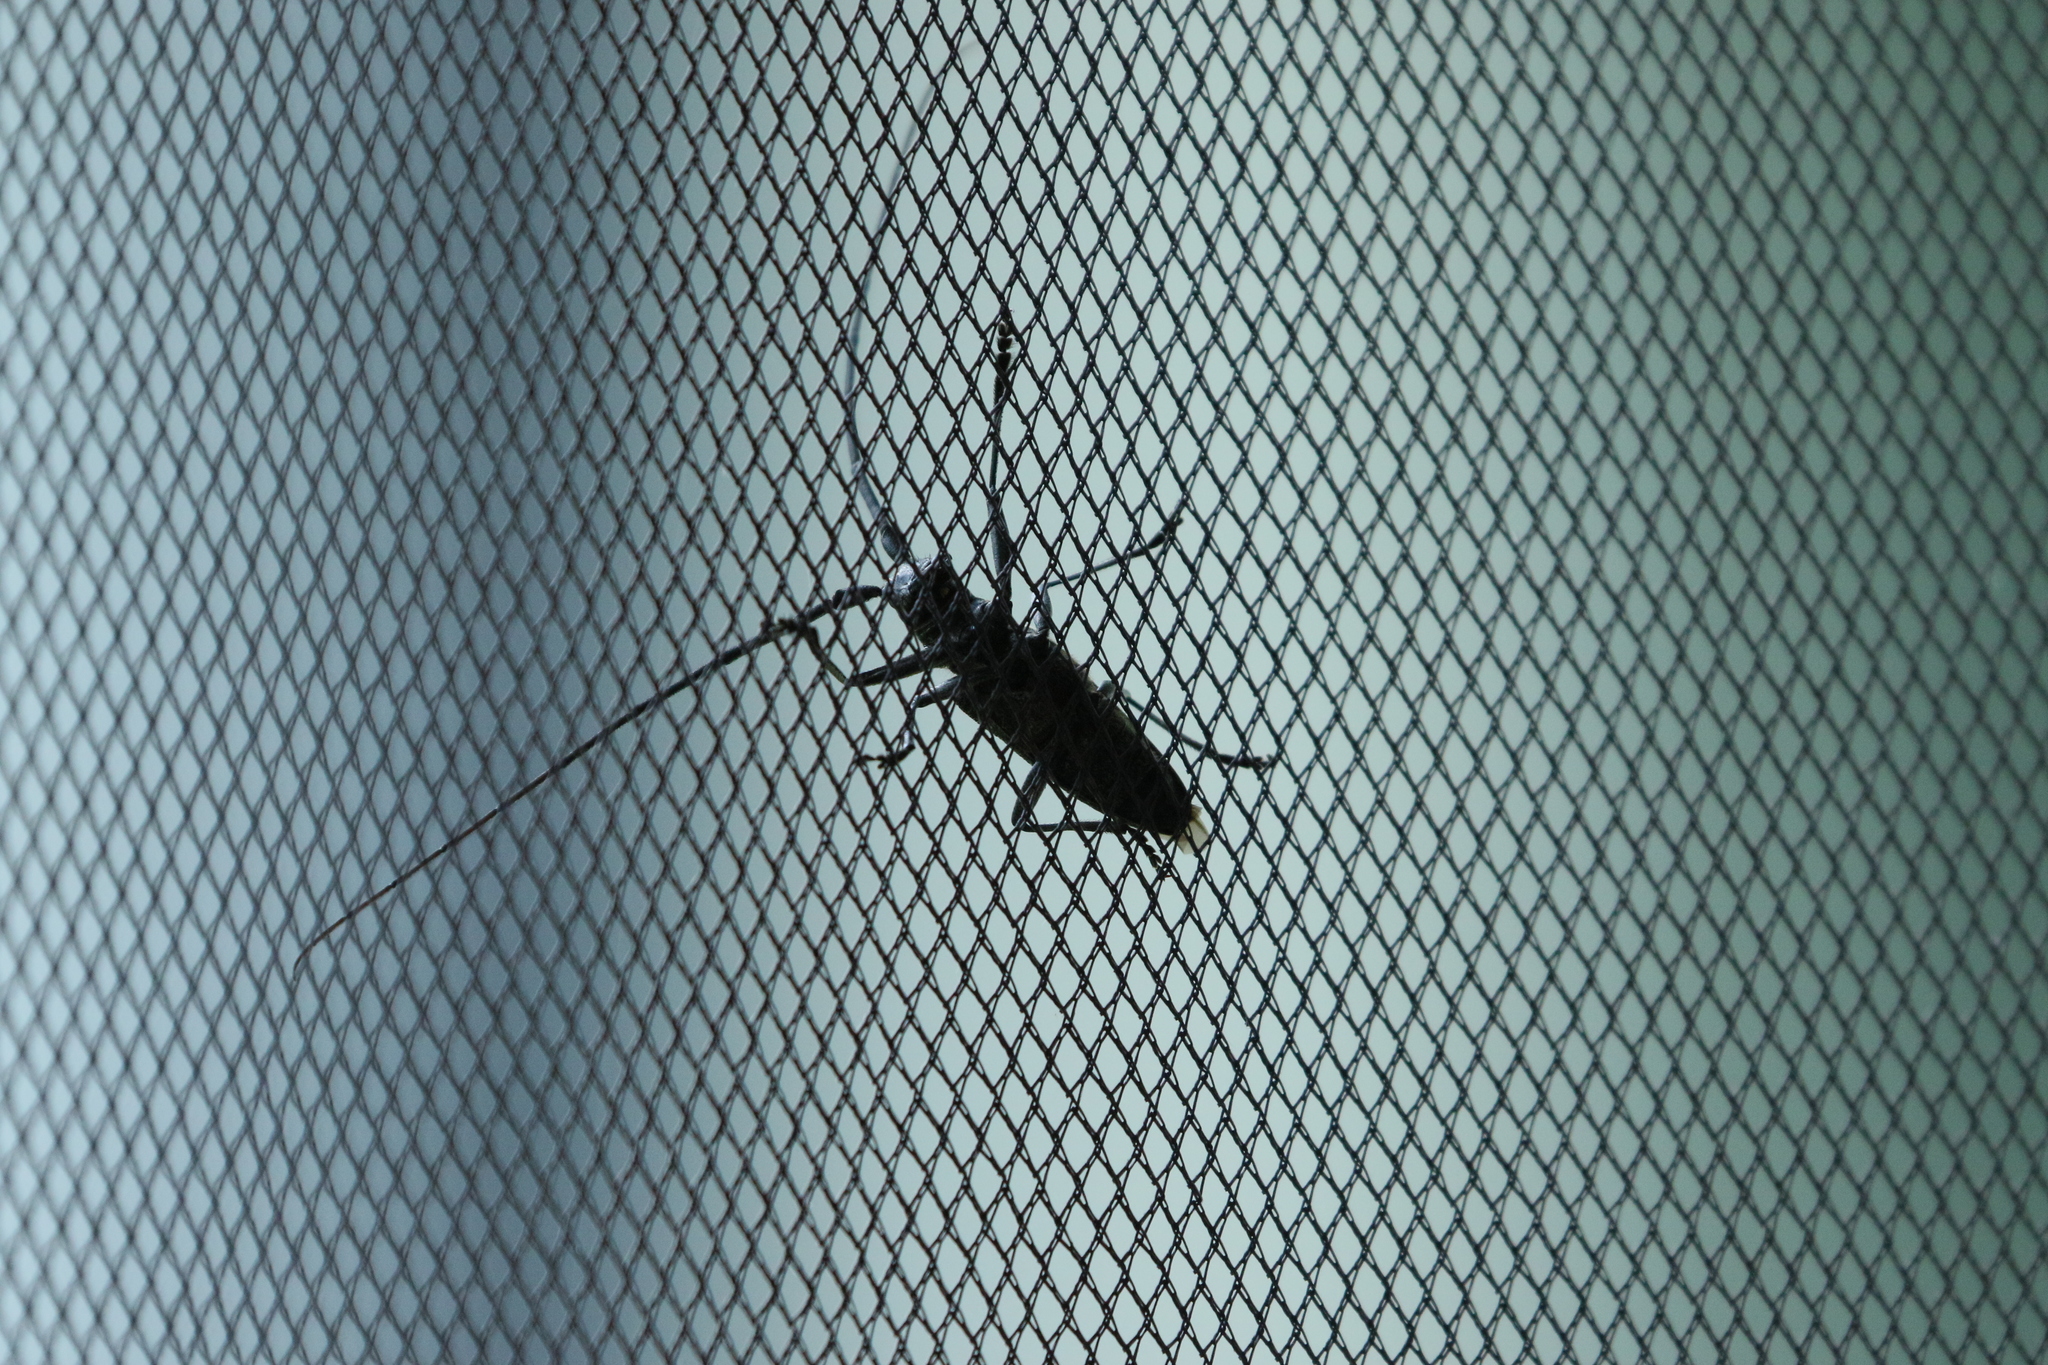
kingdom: Animalia
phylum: Arthropoda
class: Insecta
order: Coleoptera
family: Cerambycidae
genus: Monochamus
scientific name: Monochamus scutellatus
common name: White-spotted sawyer beetle
